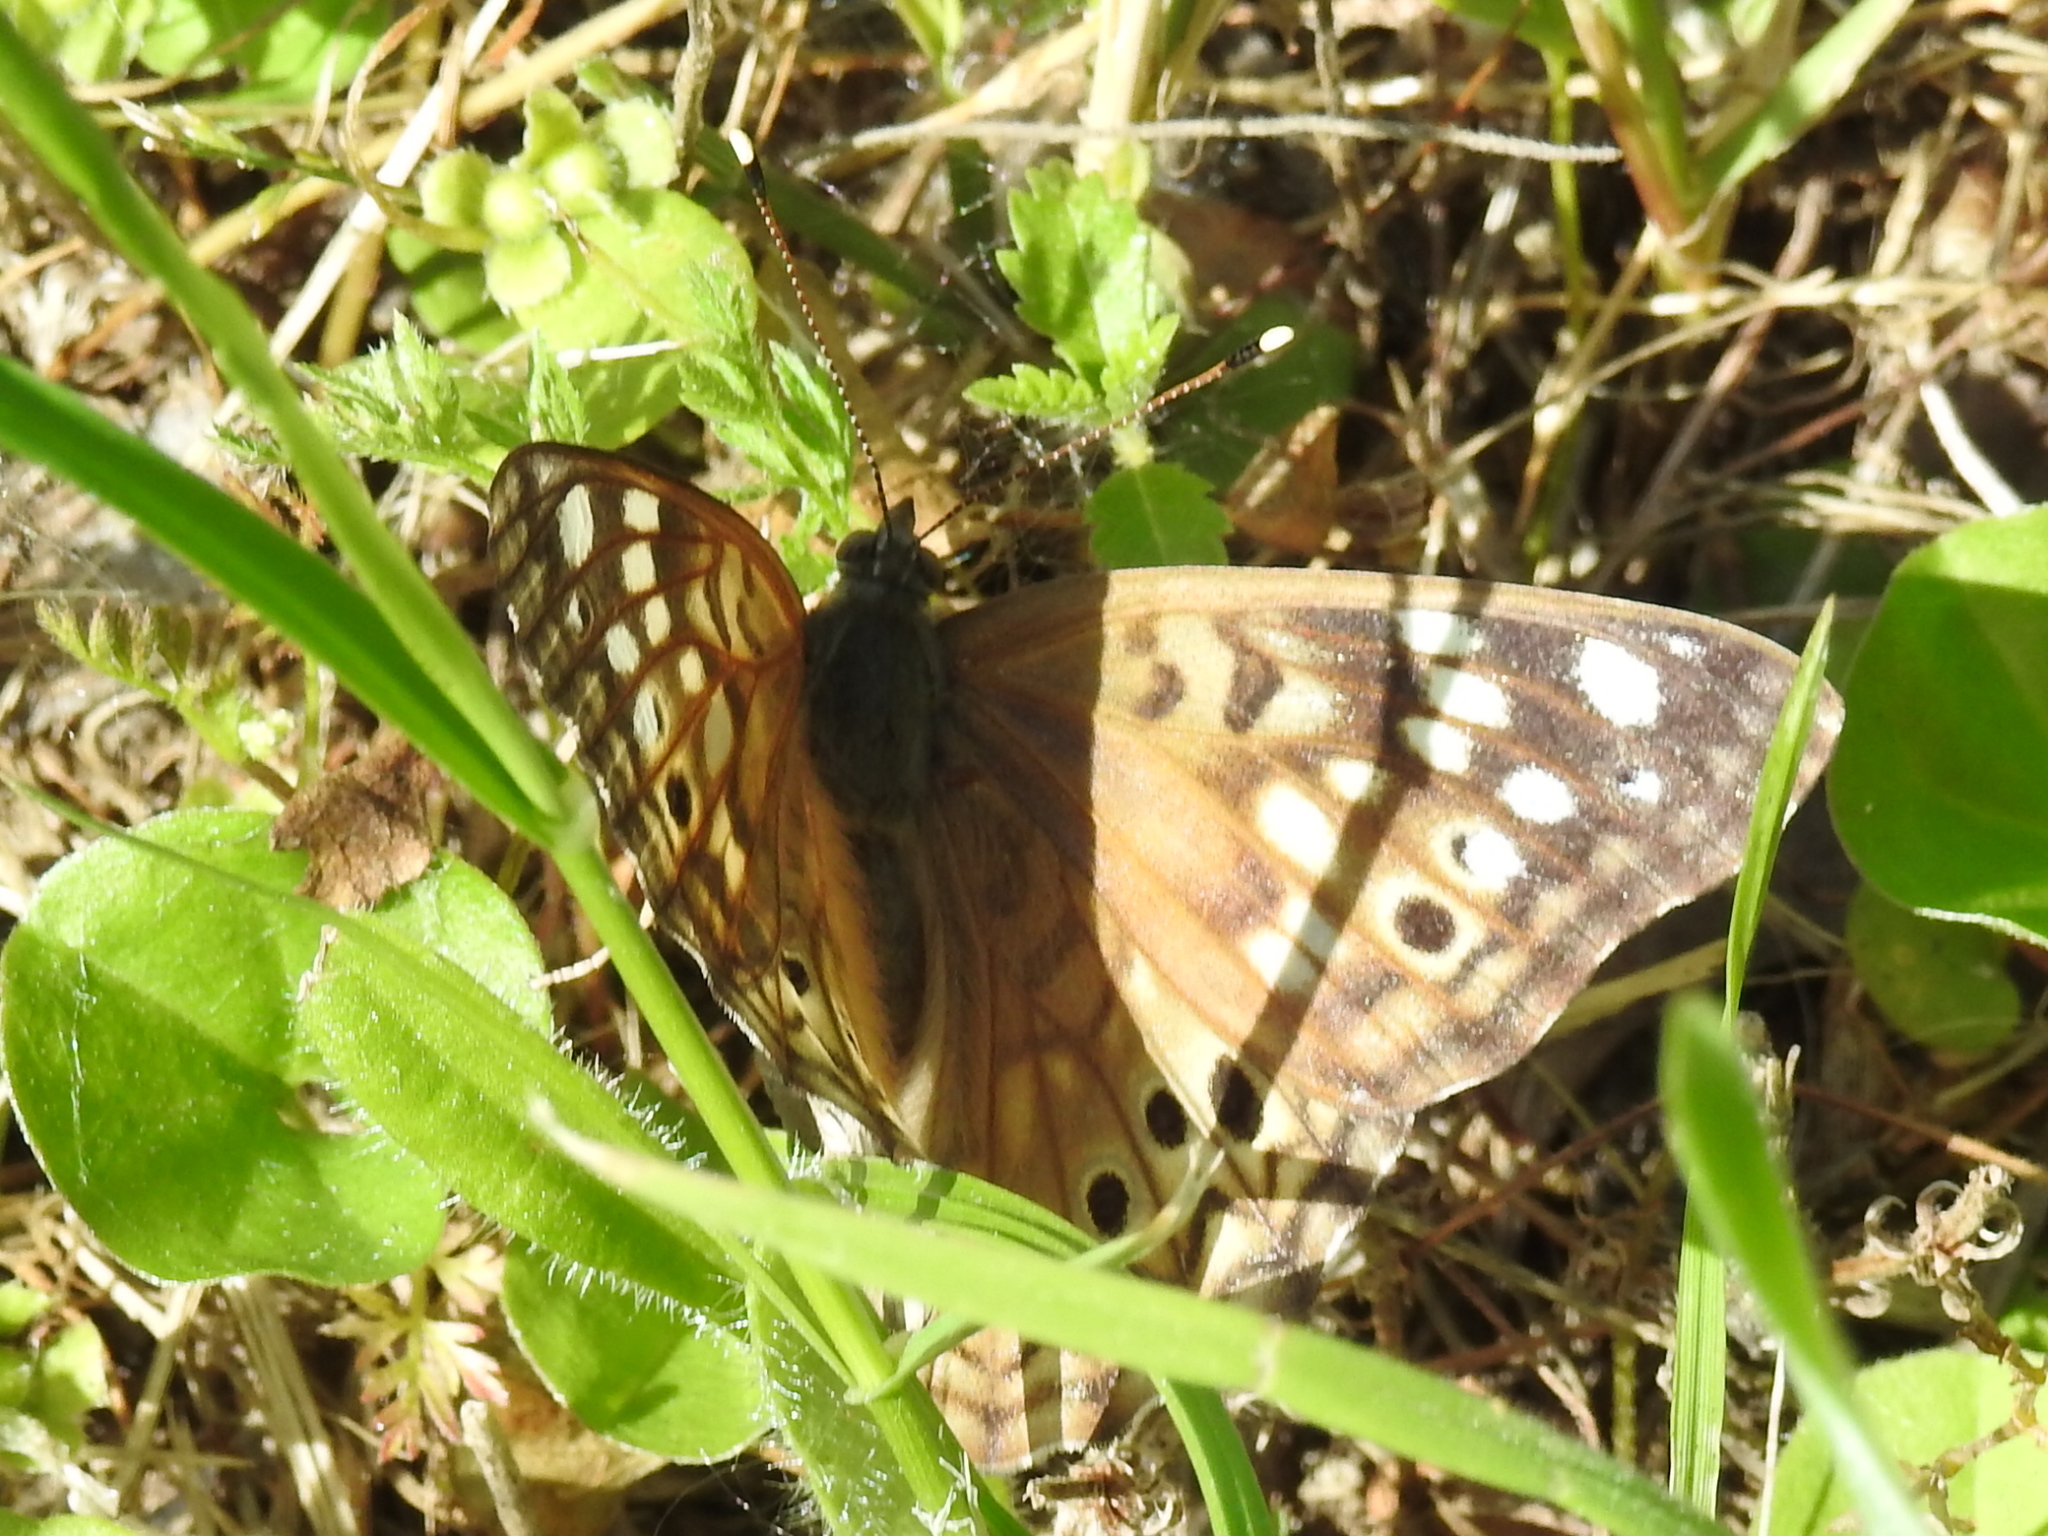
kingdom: Animalia
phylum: Arthropoda
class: Insecta
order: Lepidoptera
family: Nymphalidae
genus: Asterocampa
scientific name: Asterocampa celtis
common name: Hackberry emperor
